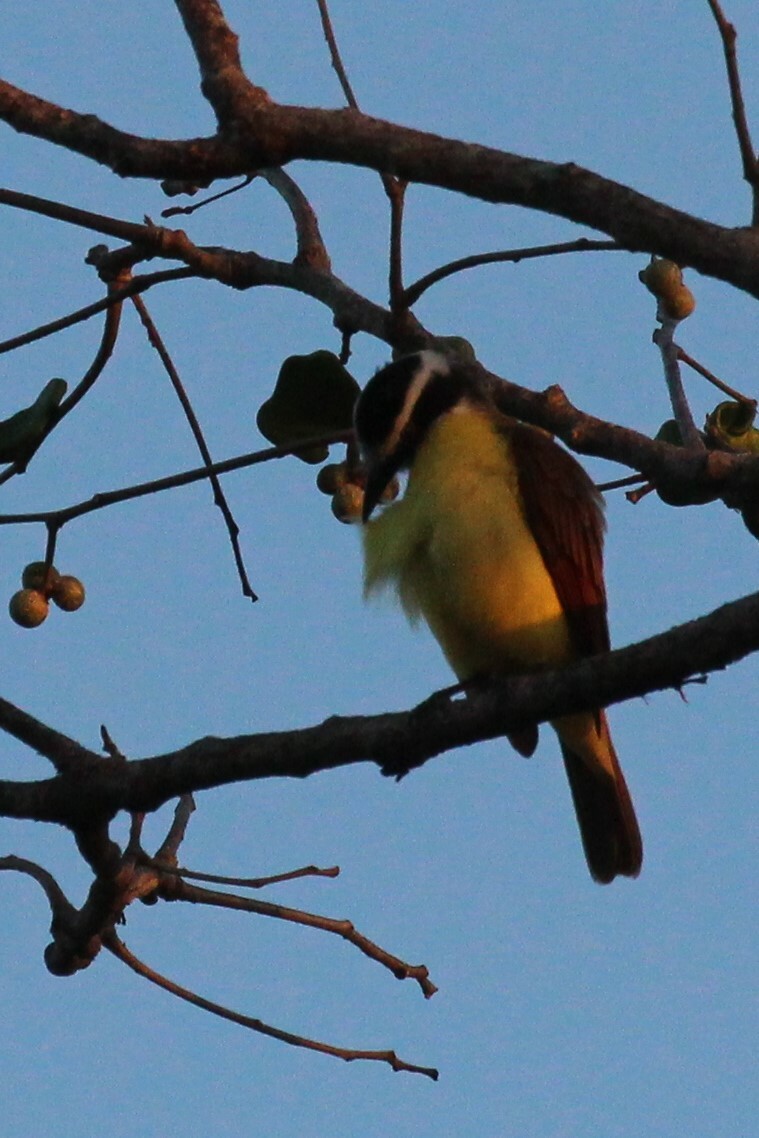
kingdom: Animalia
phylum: Chordata
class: Aves
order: Passeriformes
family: Tyrannidae
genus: Pitangus
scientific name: Pitangus sulphuratus
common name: Great kiskadee
